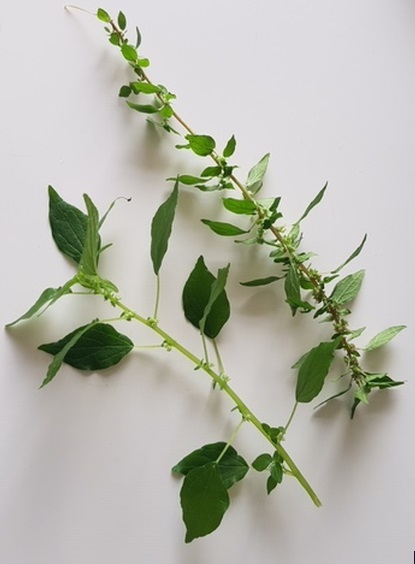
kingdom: Plantae
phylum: Tracheophyta
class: Magnoliopsida
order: Rosales
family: Urticaceae
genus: Parietaria
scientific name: Parietaria judaica
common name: Pellitory-of-the-wall
